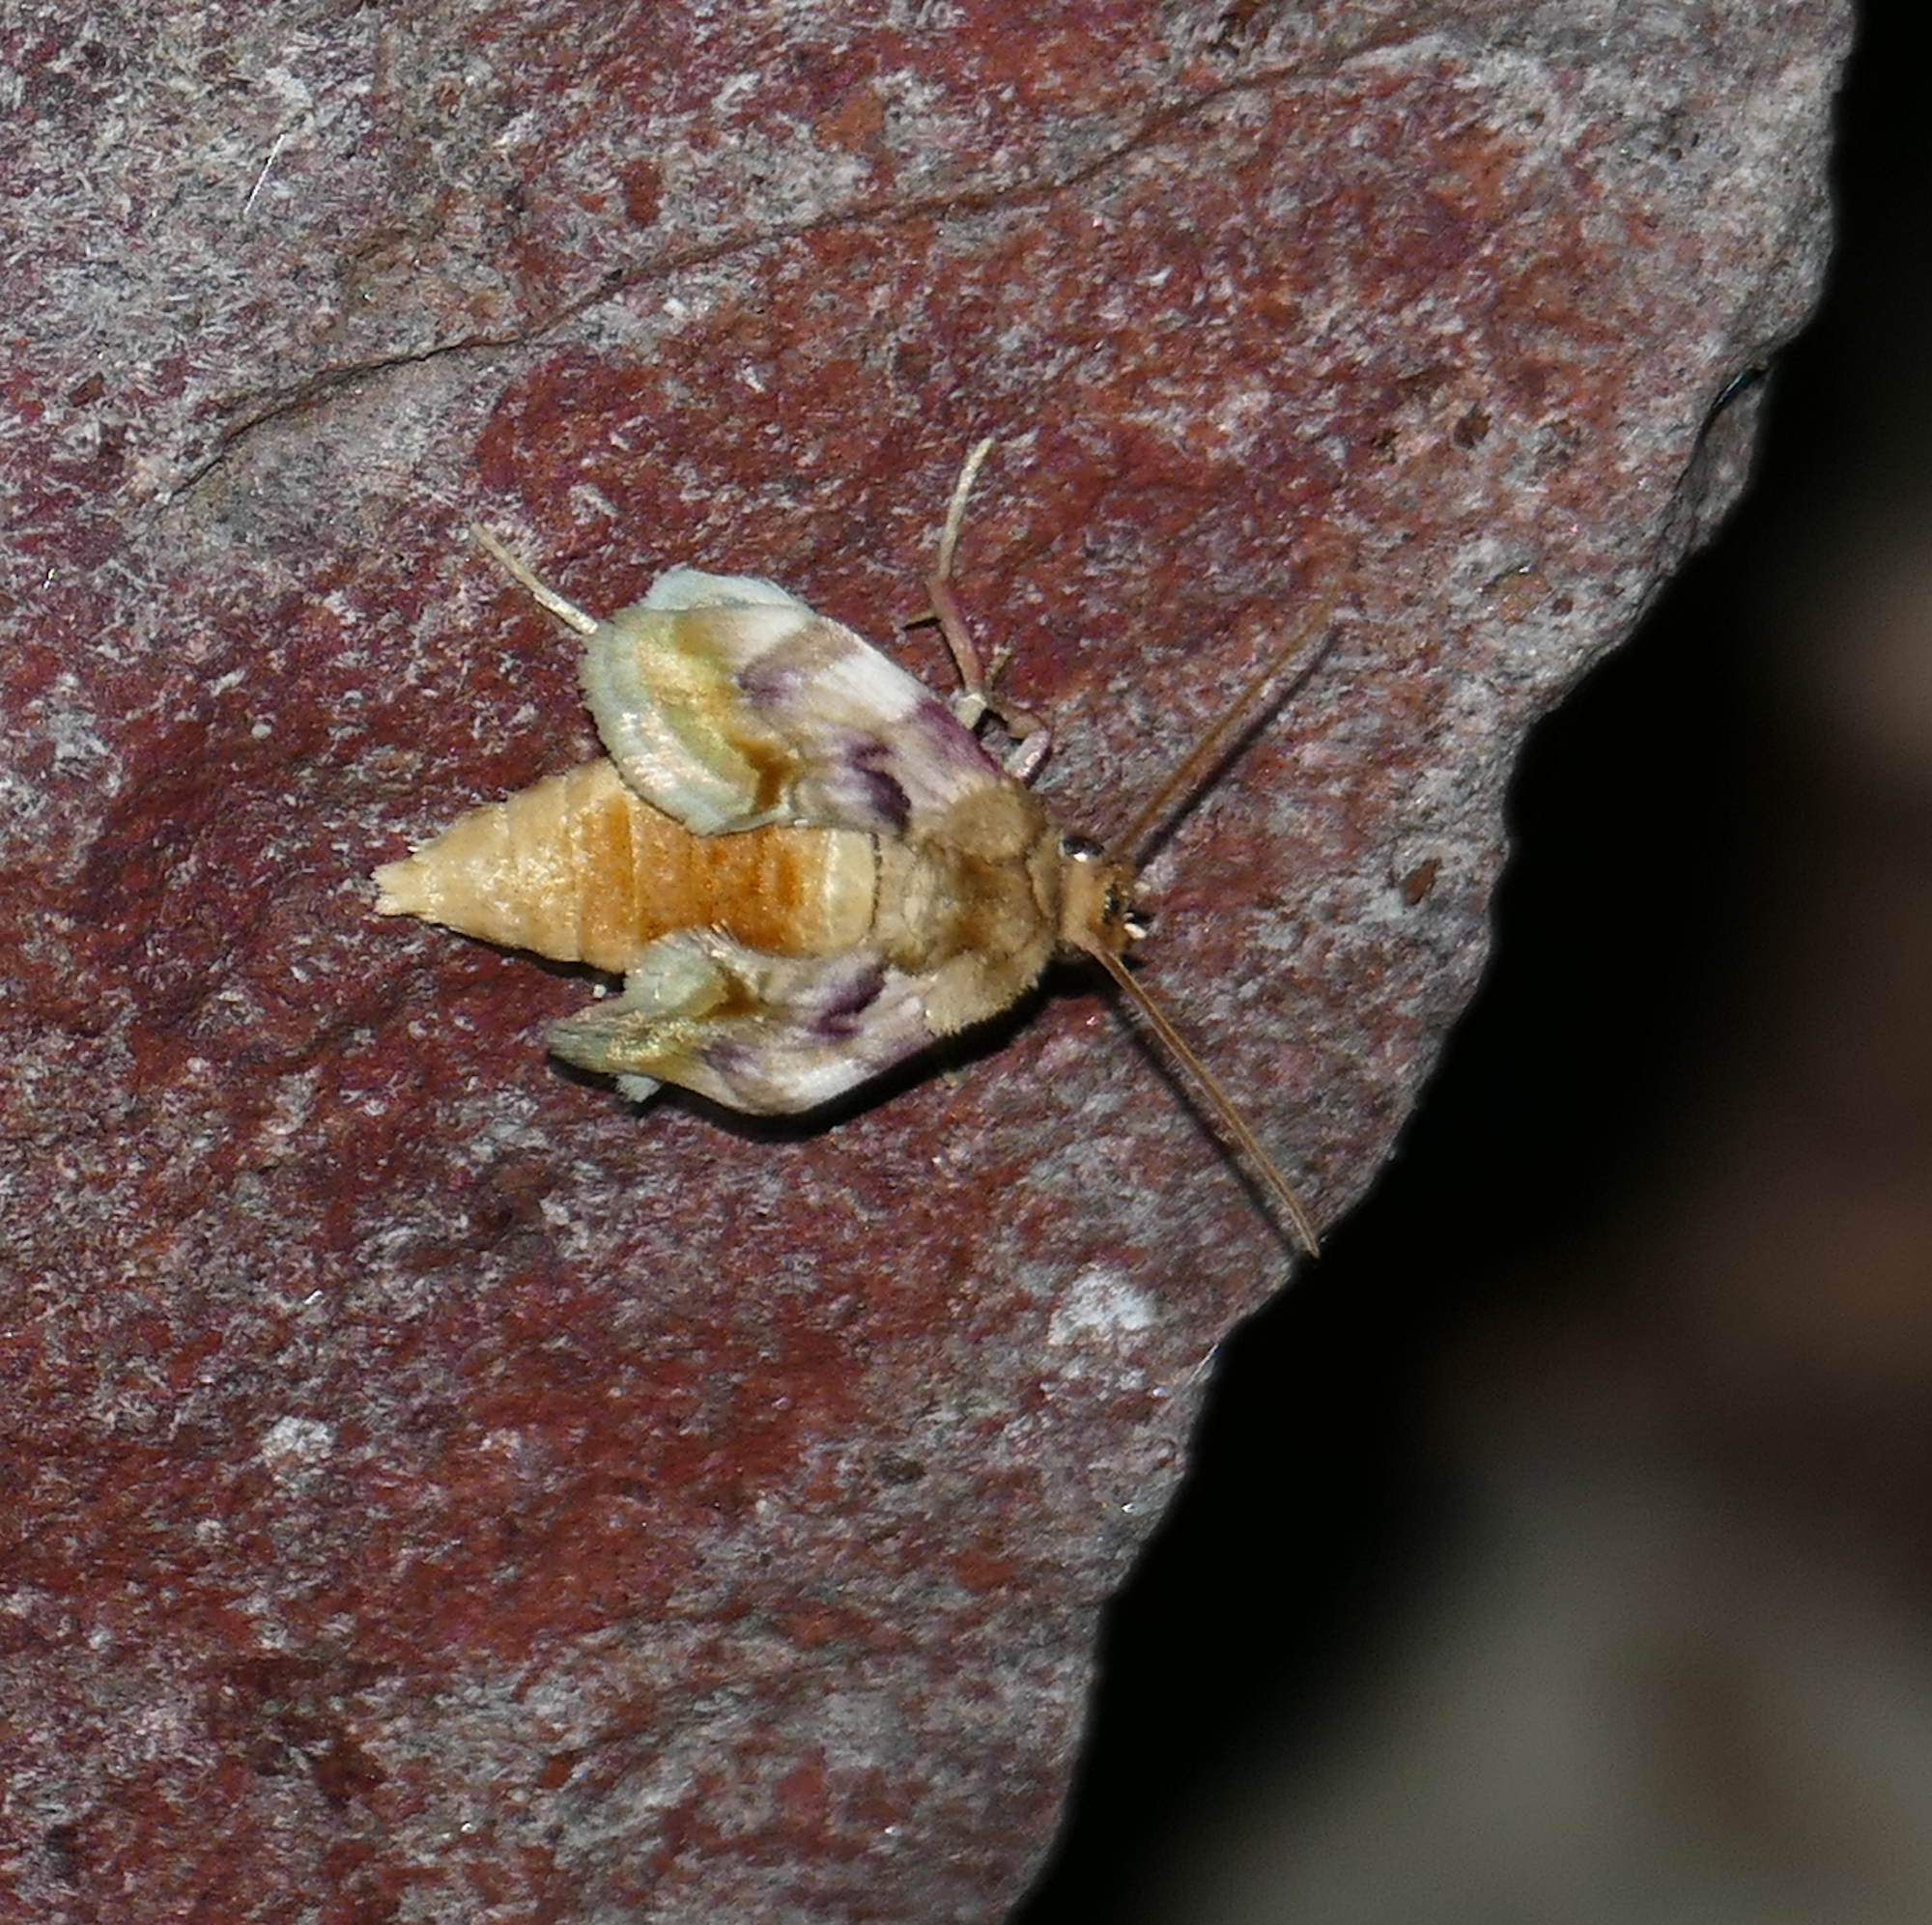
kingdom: Animalia
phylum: Arthropoda
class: Insecta
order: Lepidoptera
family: Noctuidae
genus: Chamaeclea
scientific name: Chamaeclea pernana
